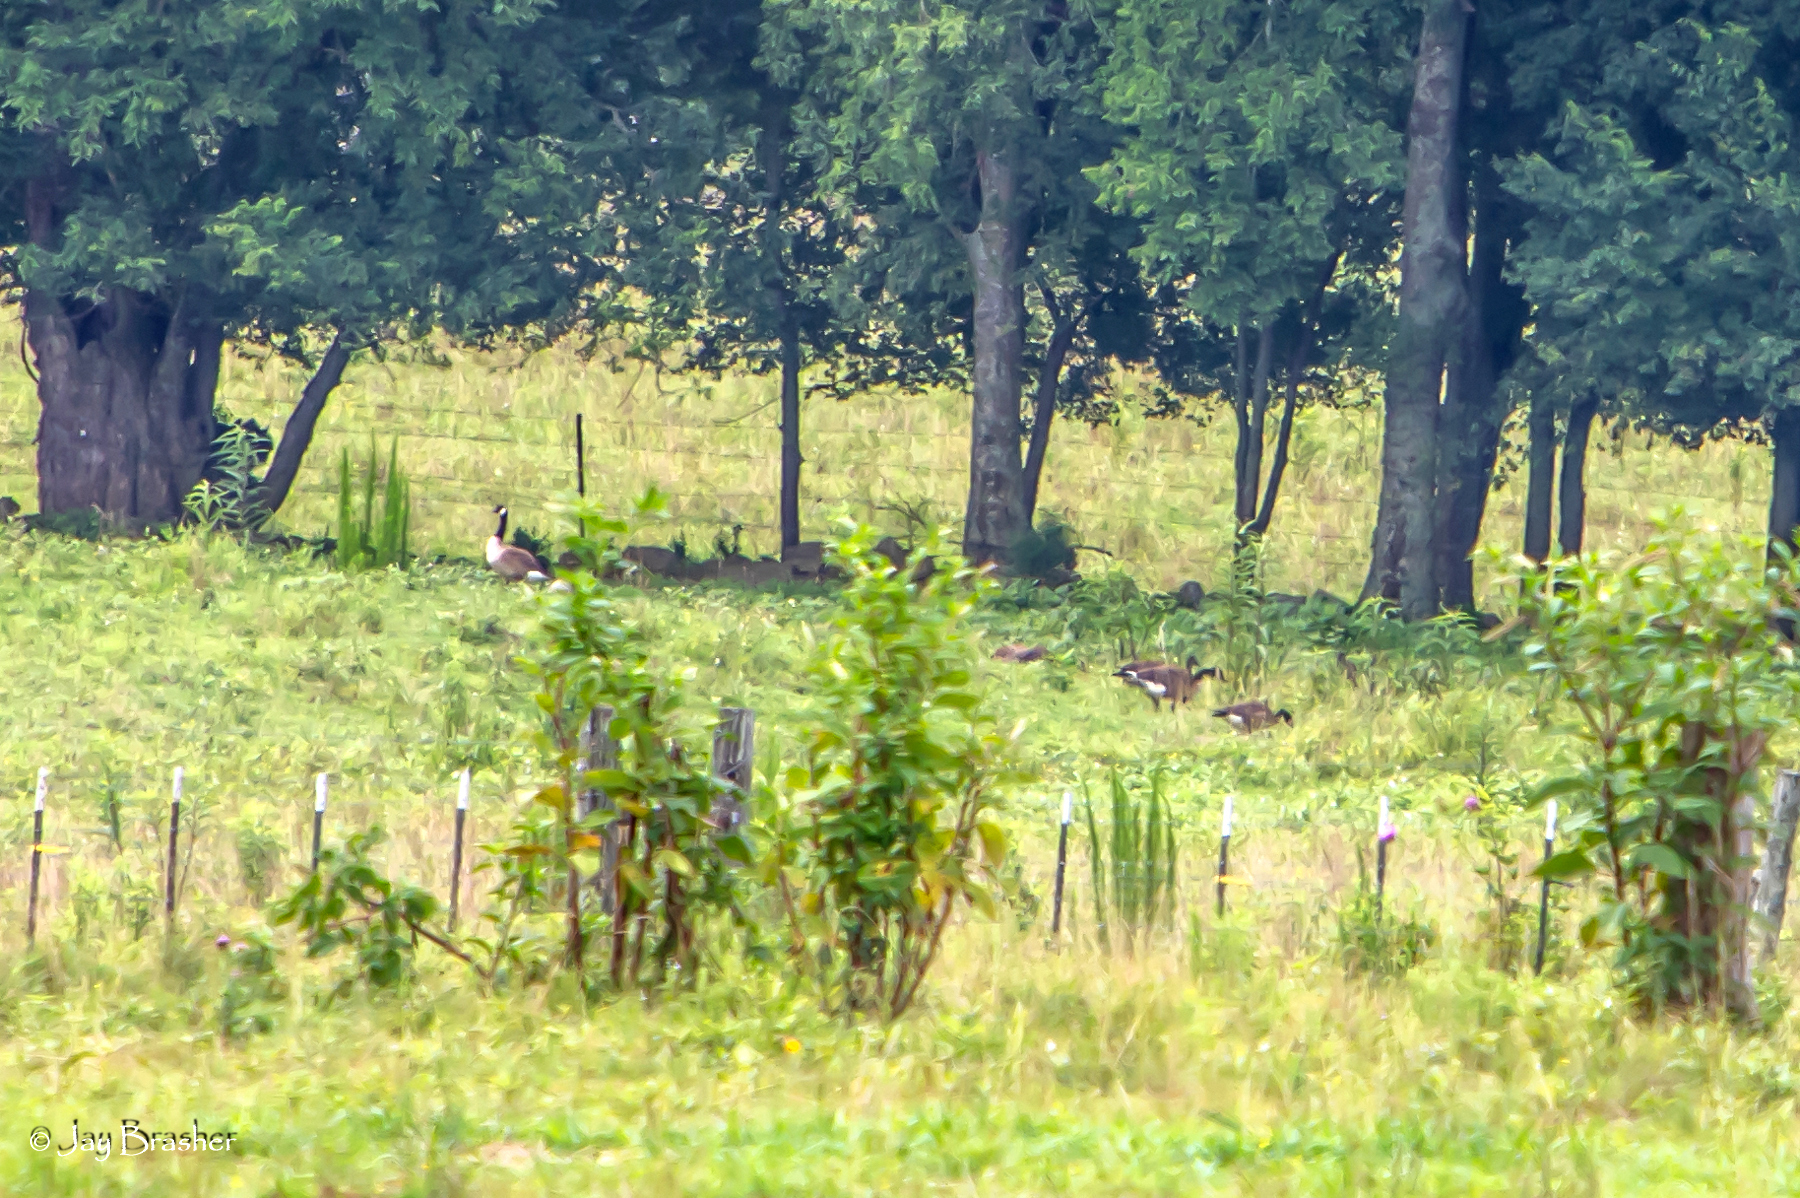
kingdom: Animalia
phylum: Chordata
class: Aves
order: Anseriformes
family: Anatidae
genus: Branta
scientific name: Branta canadensis
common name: Canada goose
